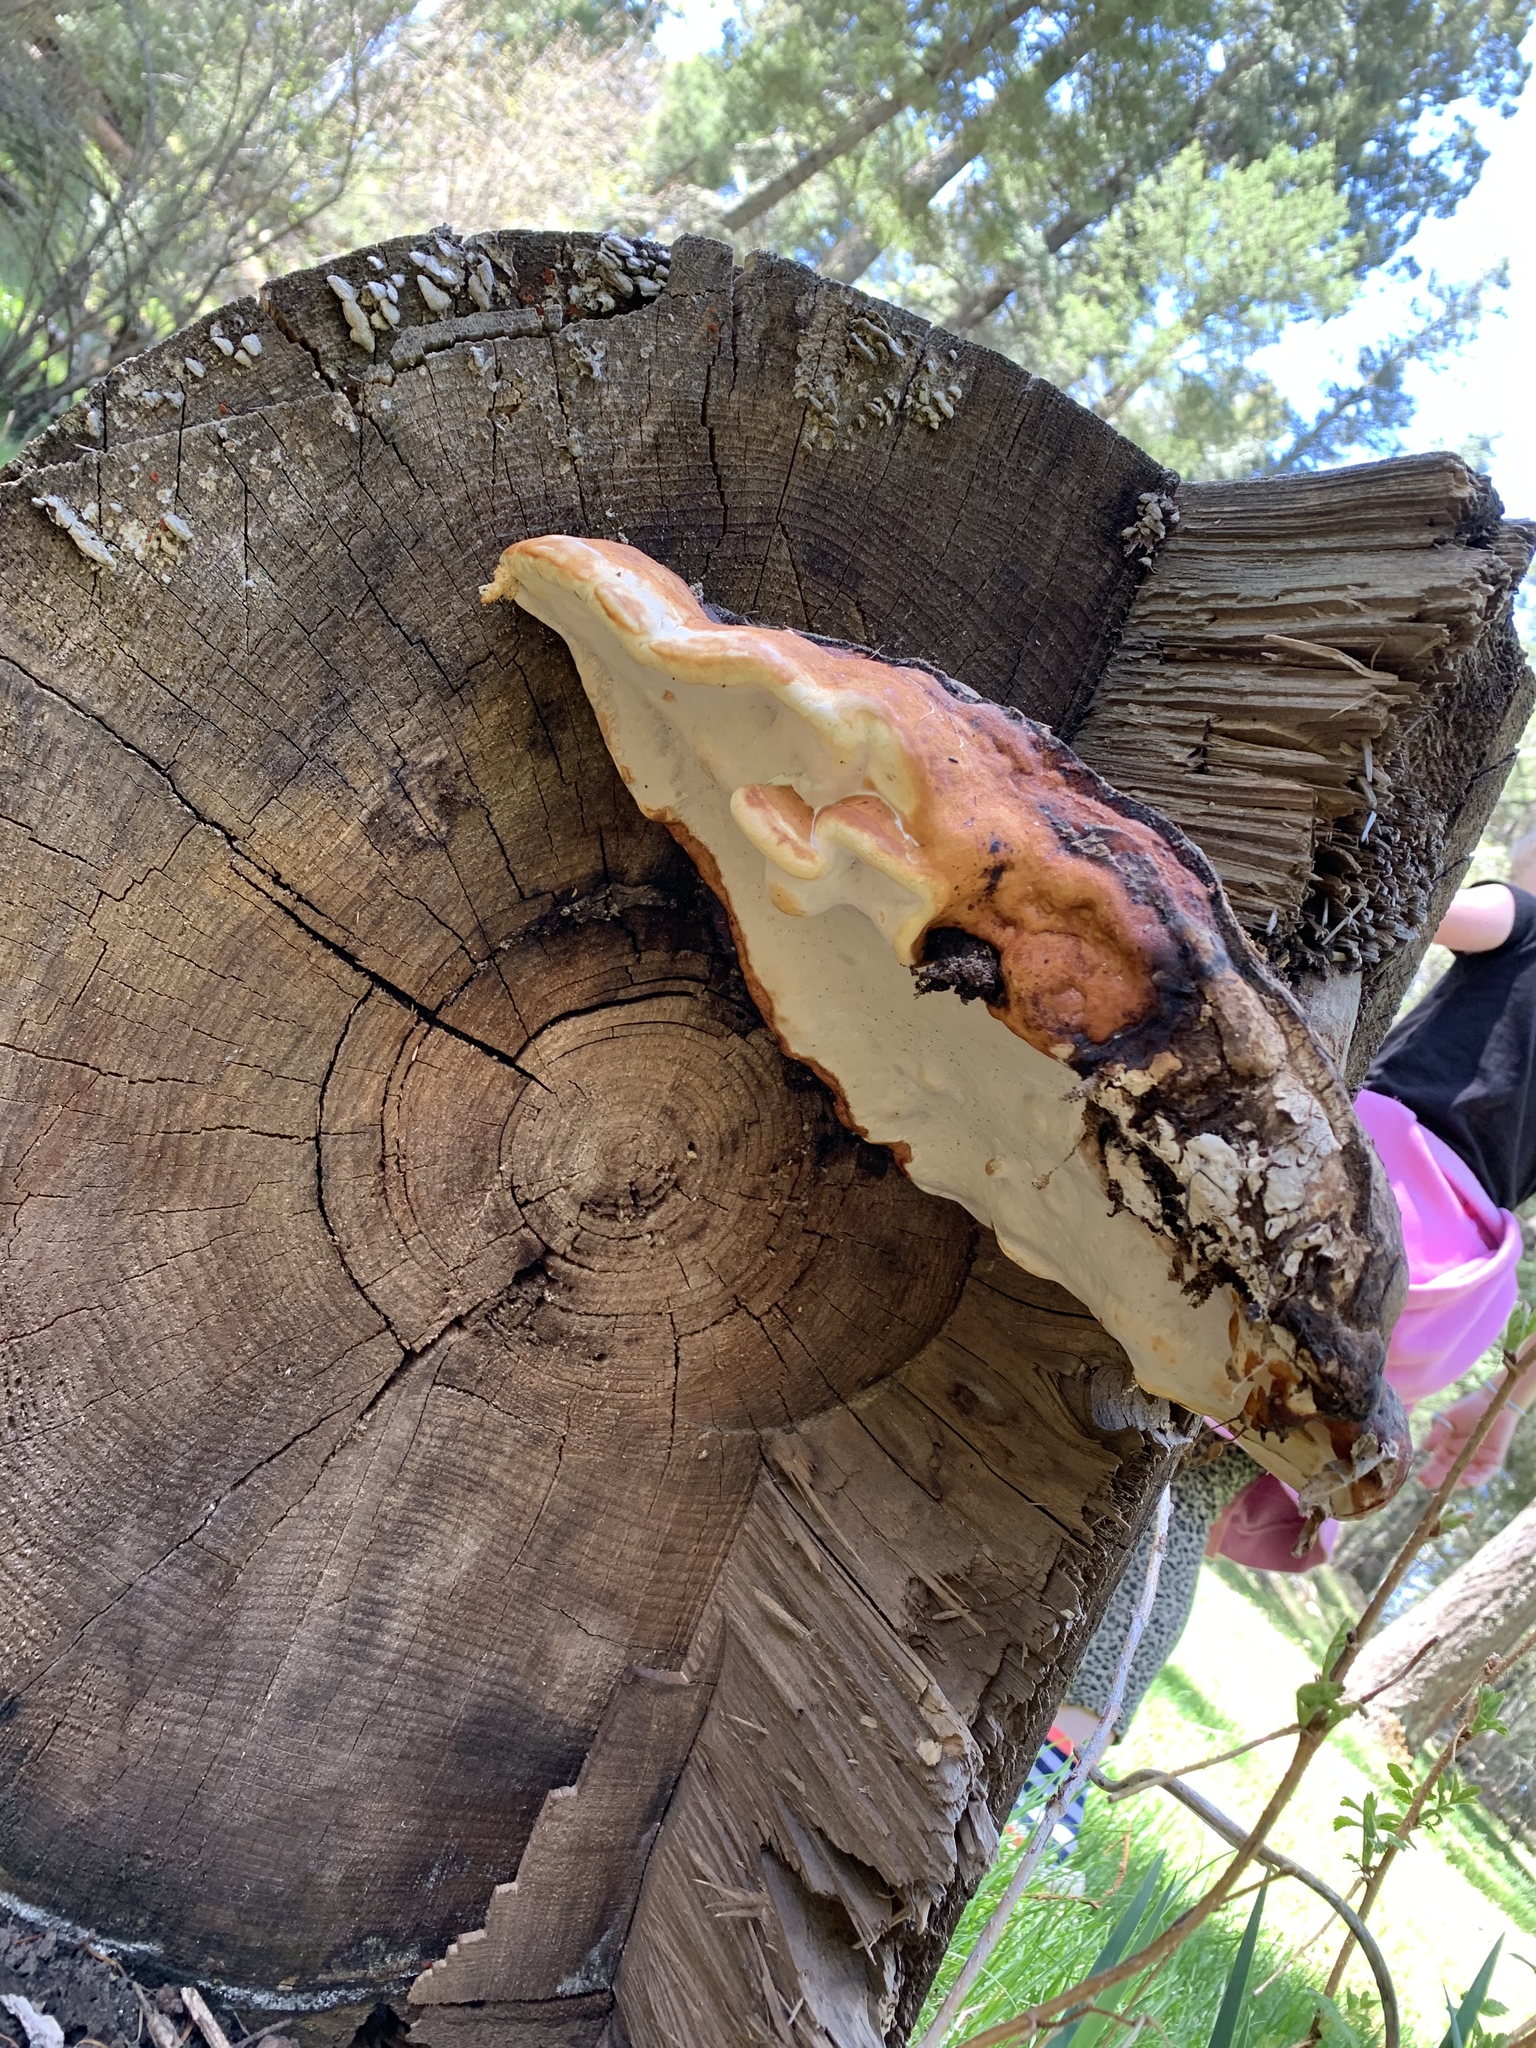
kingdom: Fungi
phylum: Basidiomycota
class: Agaricomycetes
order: Polyporales
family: Fomitopsidaceae
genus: Fomitopsis
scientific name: Fomitopsis schrenkii
